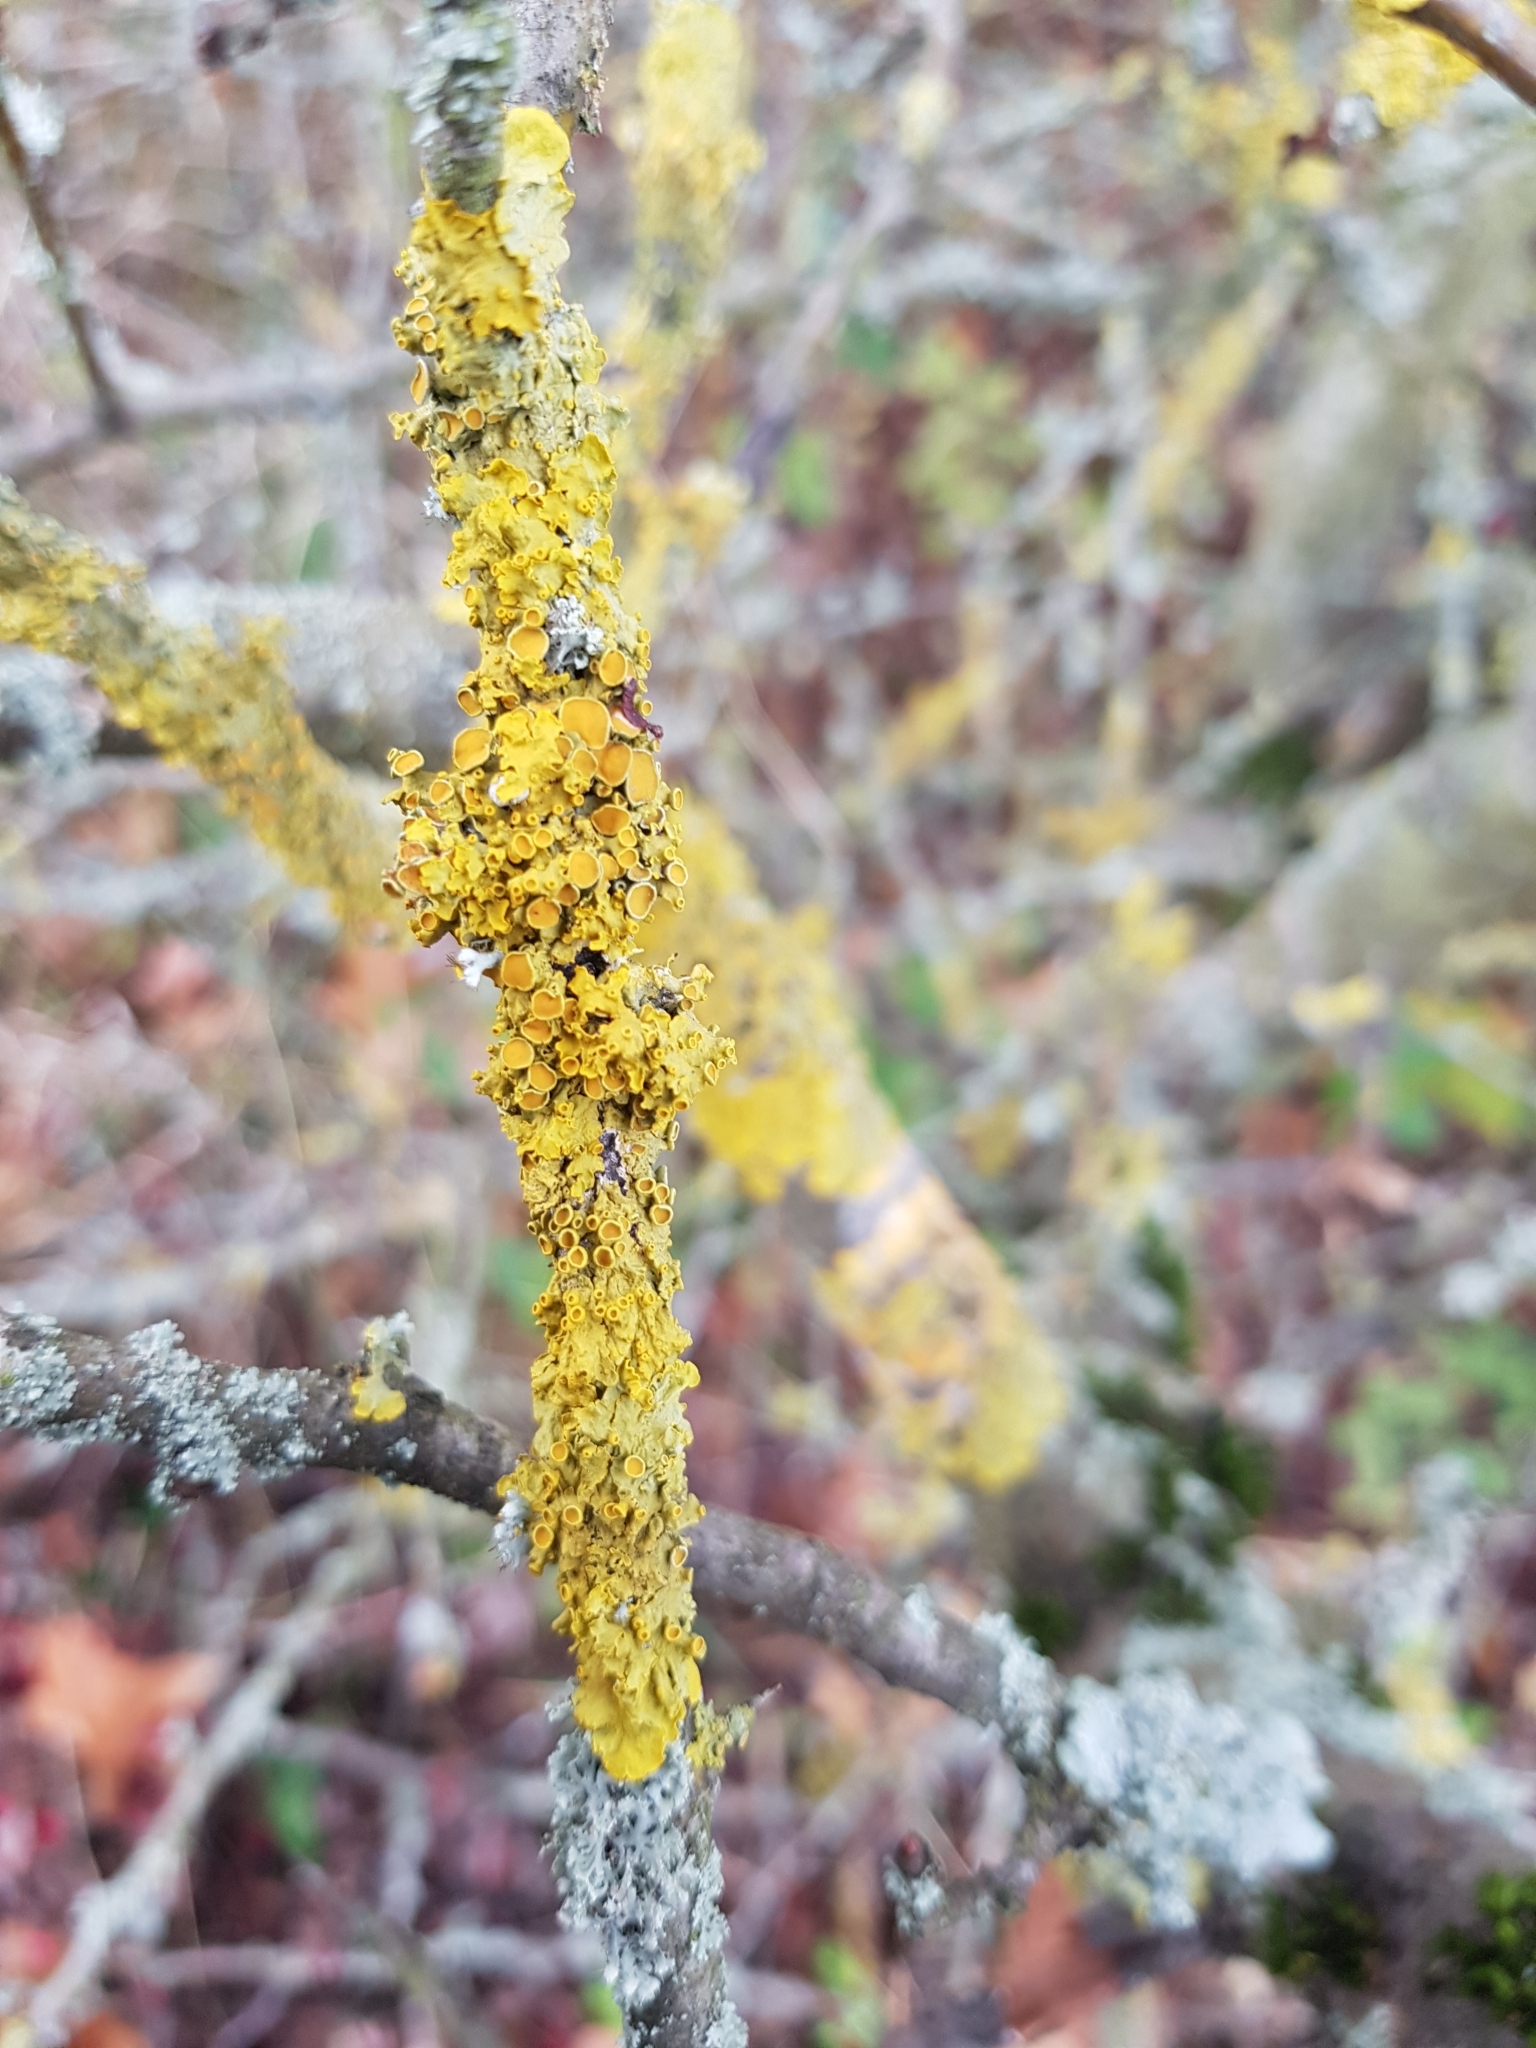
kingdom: Fungi
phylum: Ascomycota
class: Lecanoromycetes
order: Teloschistales
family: Teloschistaceae
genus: Xanthoria
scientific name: Xanthoria parietina
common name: Common orange lichen
